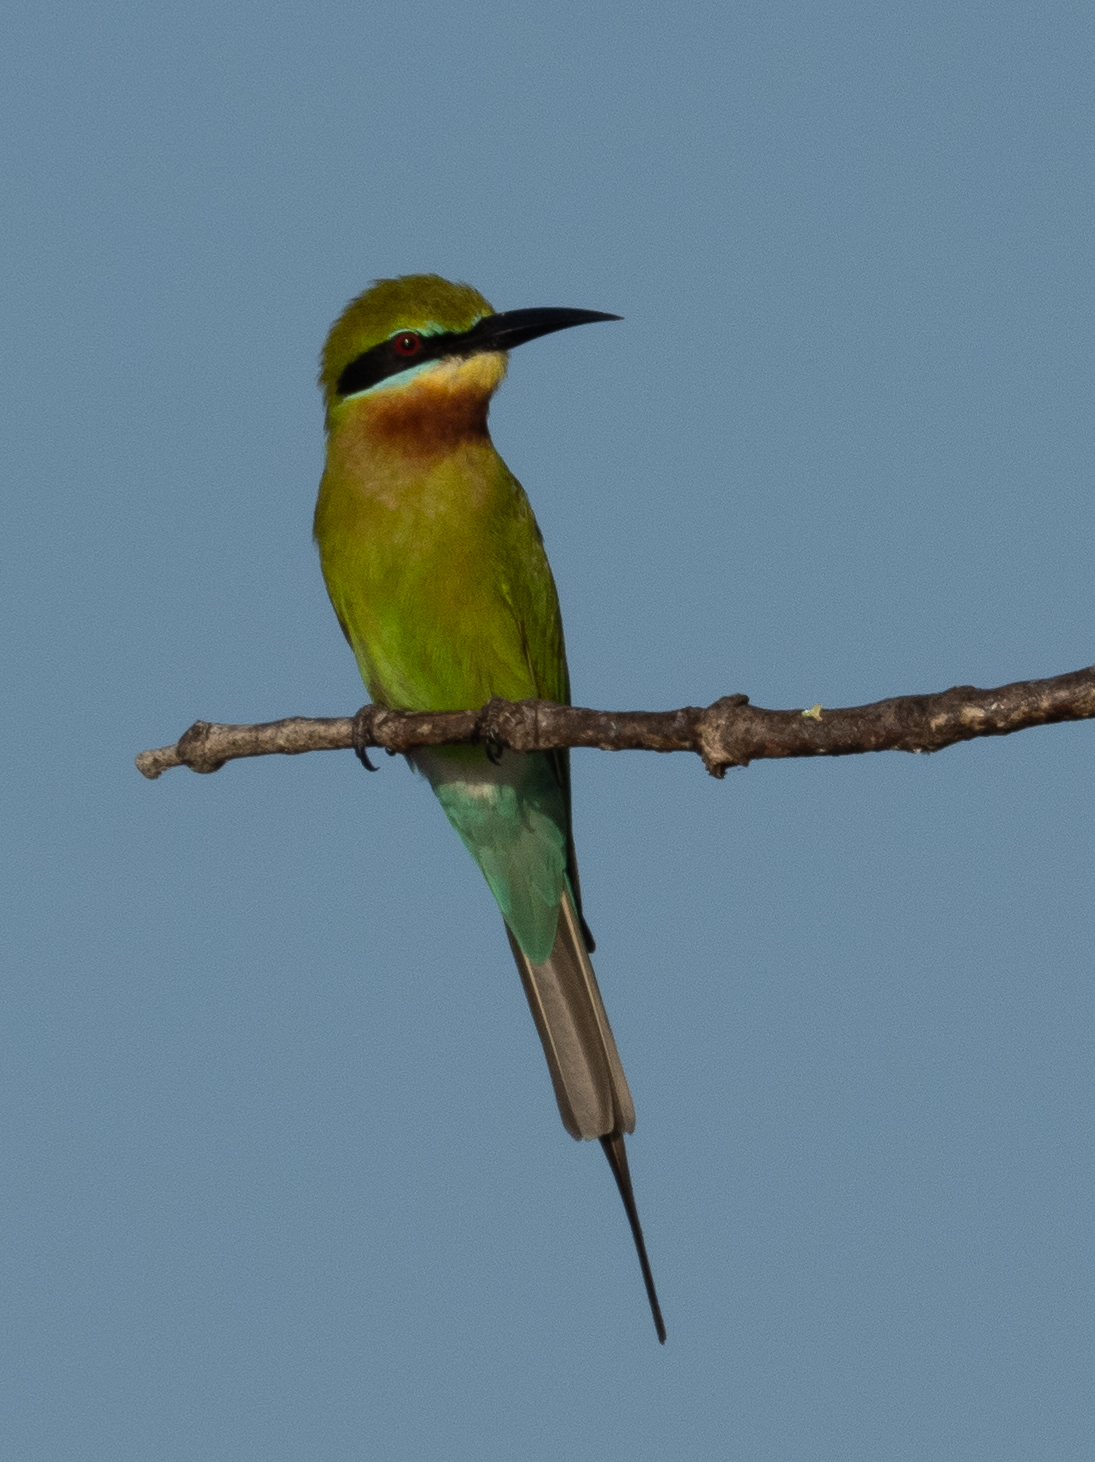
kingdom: Animalia
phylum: Chordata
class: Aves
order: Coraciiformes
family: Meropidae
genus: Merops
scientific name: Merops philippinus
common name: Blue-tailed bee-eater
